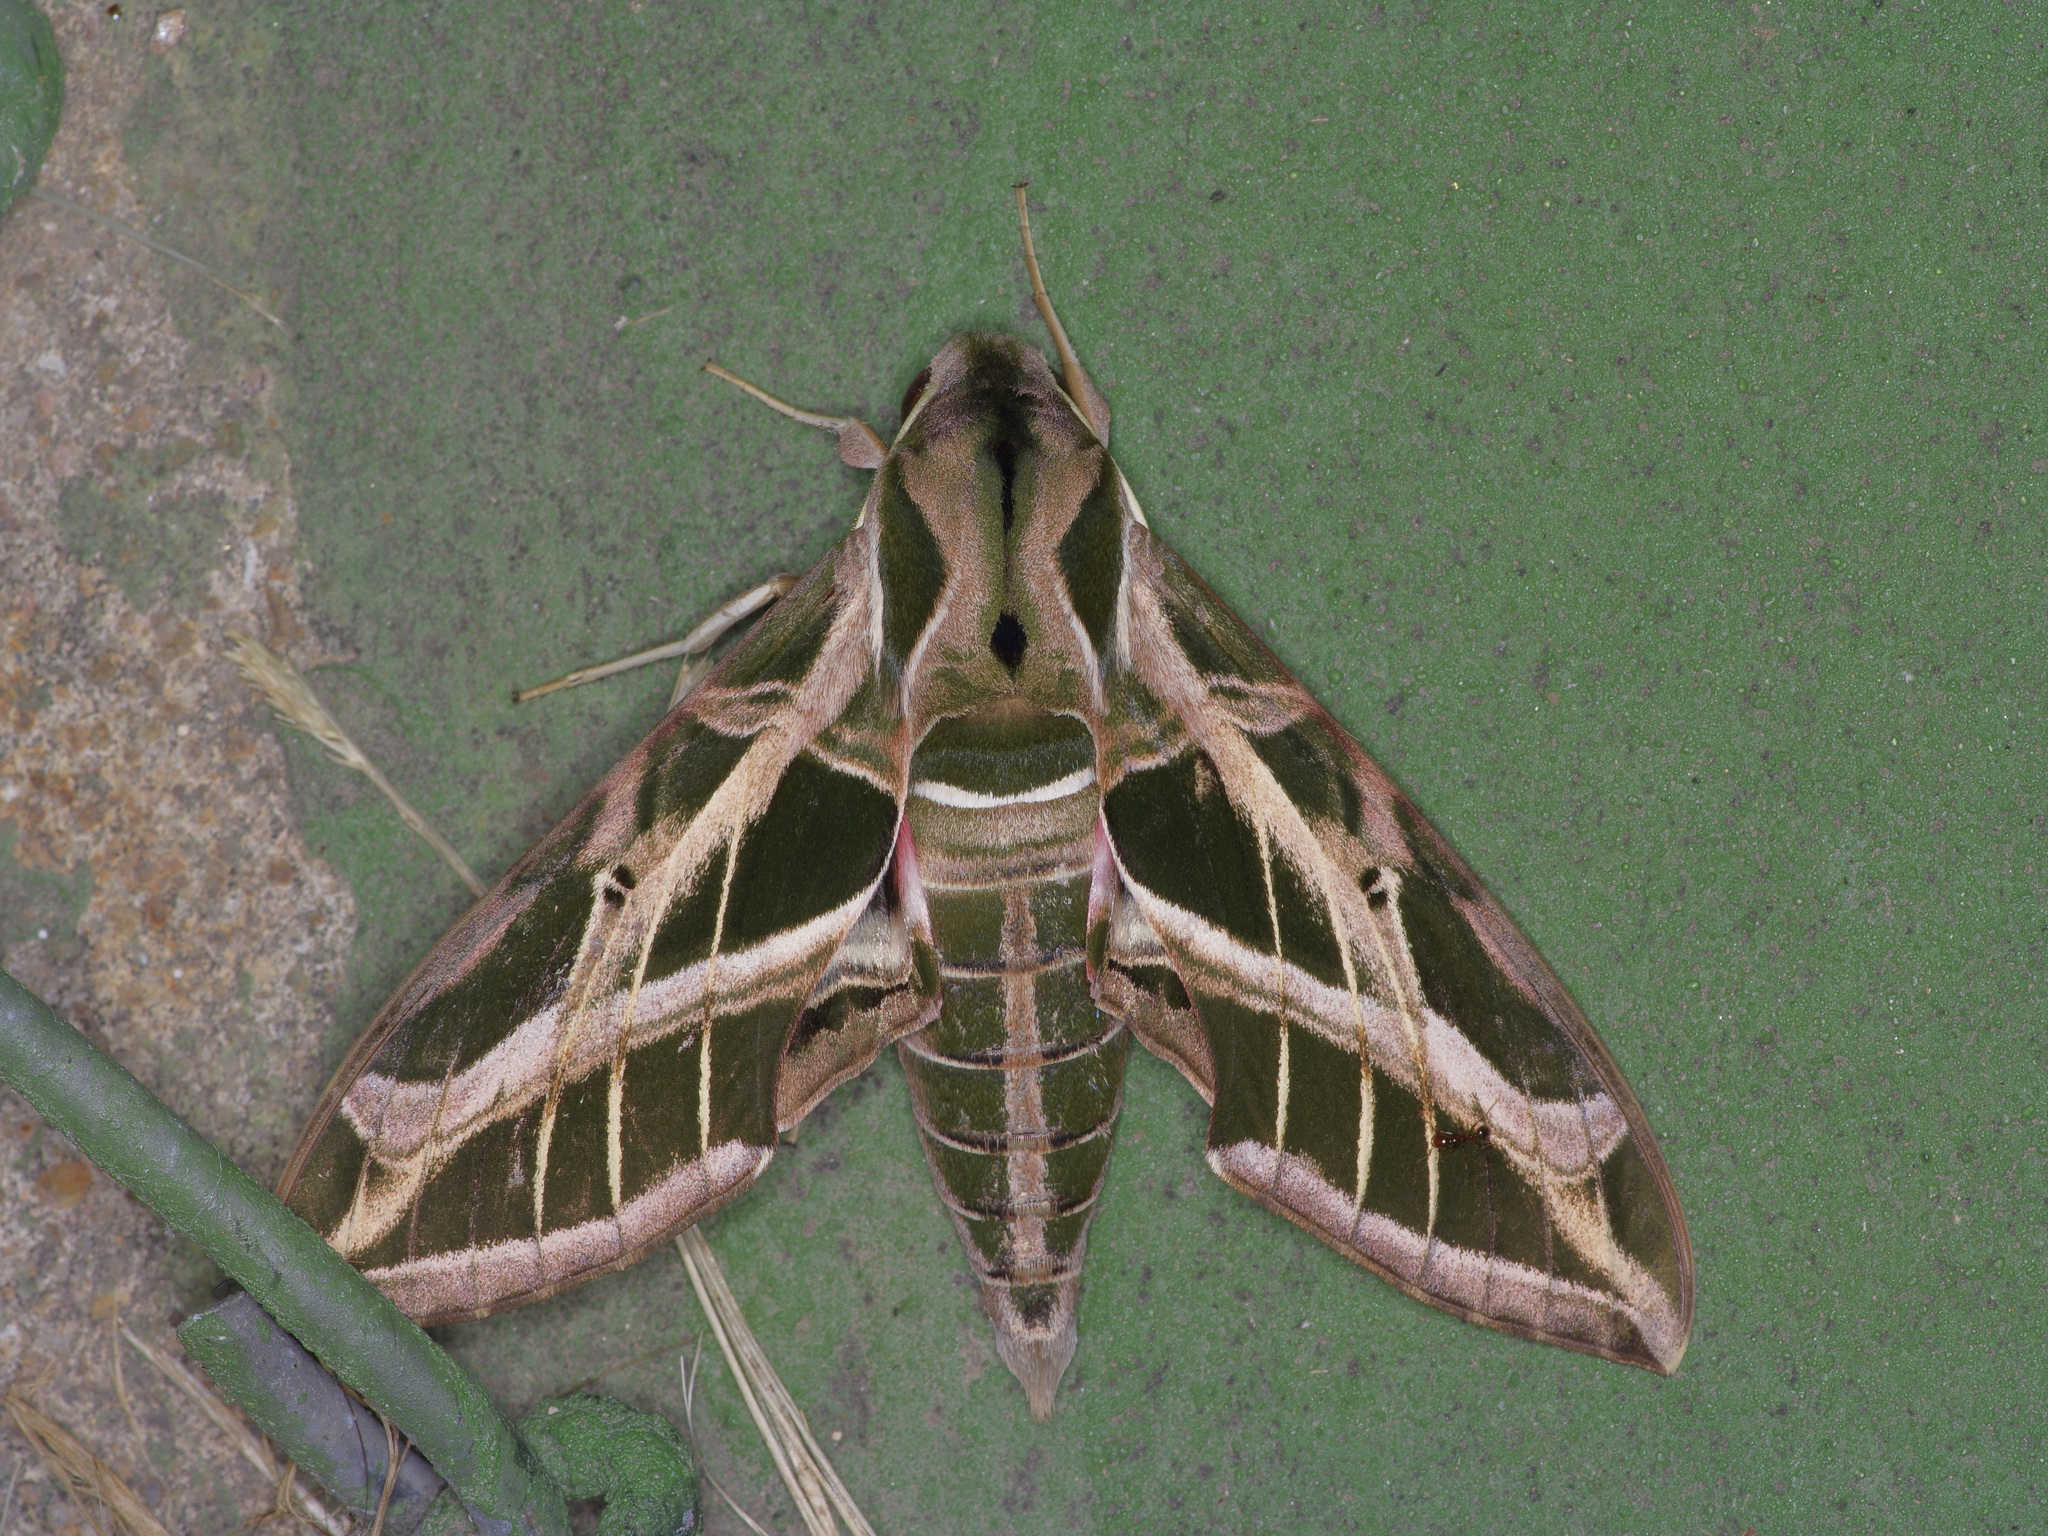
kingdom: Animalia
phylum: Arthropoda
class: Insecta
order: Lepidoptera
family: Sphingidae
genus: Eumorpha
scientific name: Eumorpha vitis
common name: Vine sphinx
